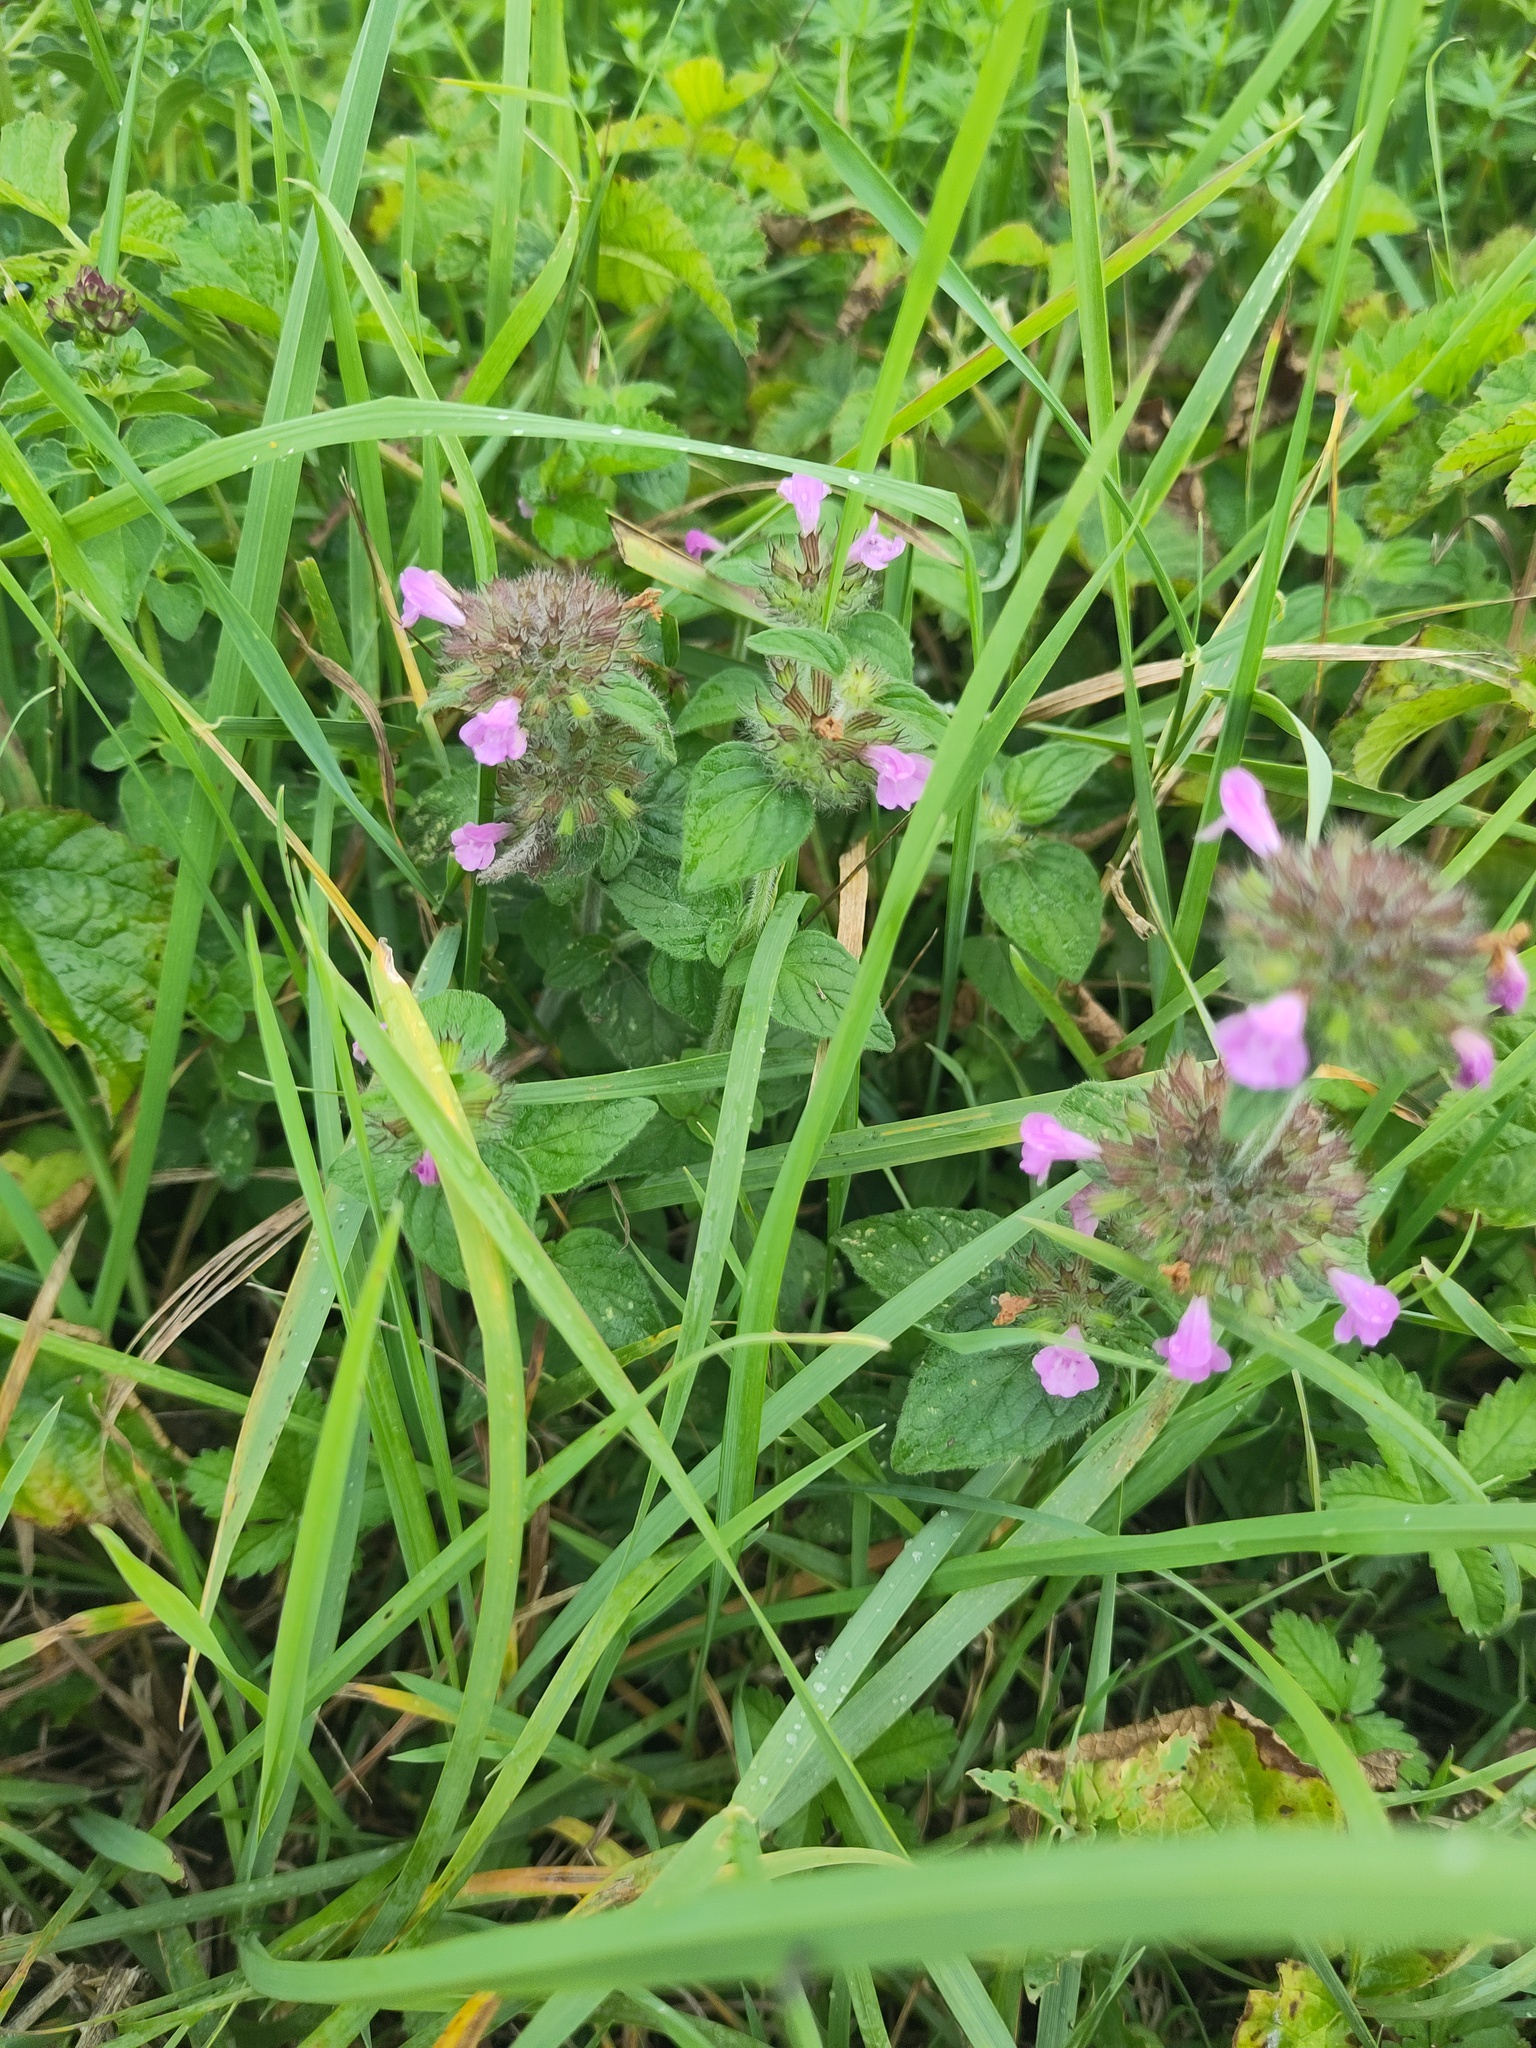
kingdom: Plantae
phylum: Tracheophyta
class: Magnoliopsida
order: Lamiales
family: Lamiaceae
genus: Clinopodium
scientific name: Clinopodium vulgare
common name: Wild basil
